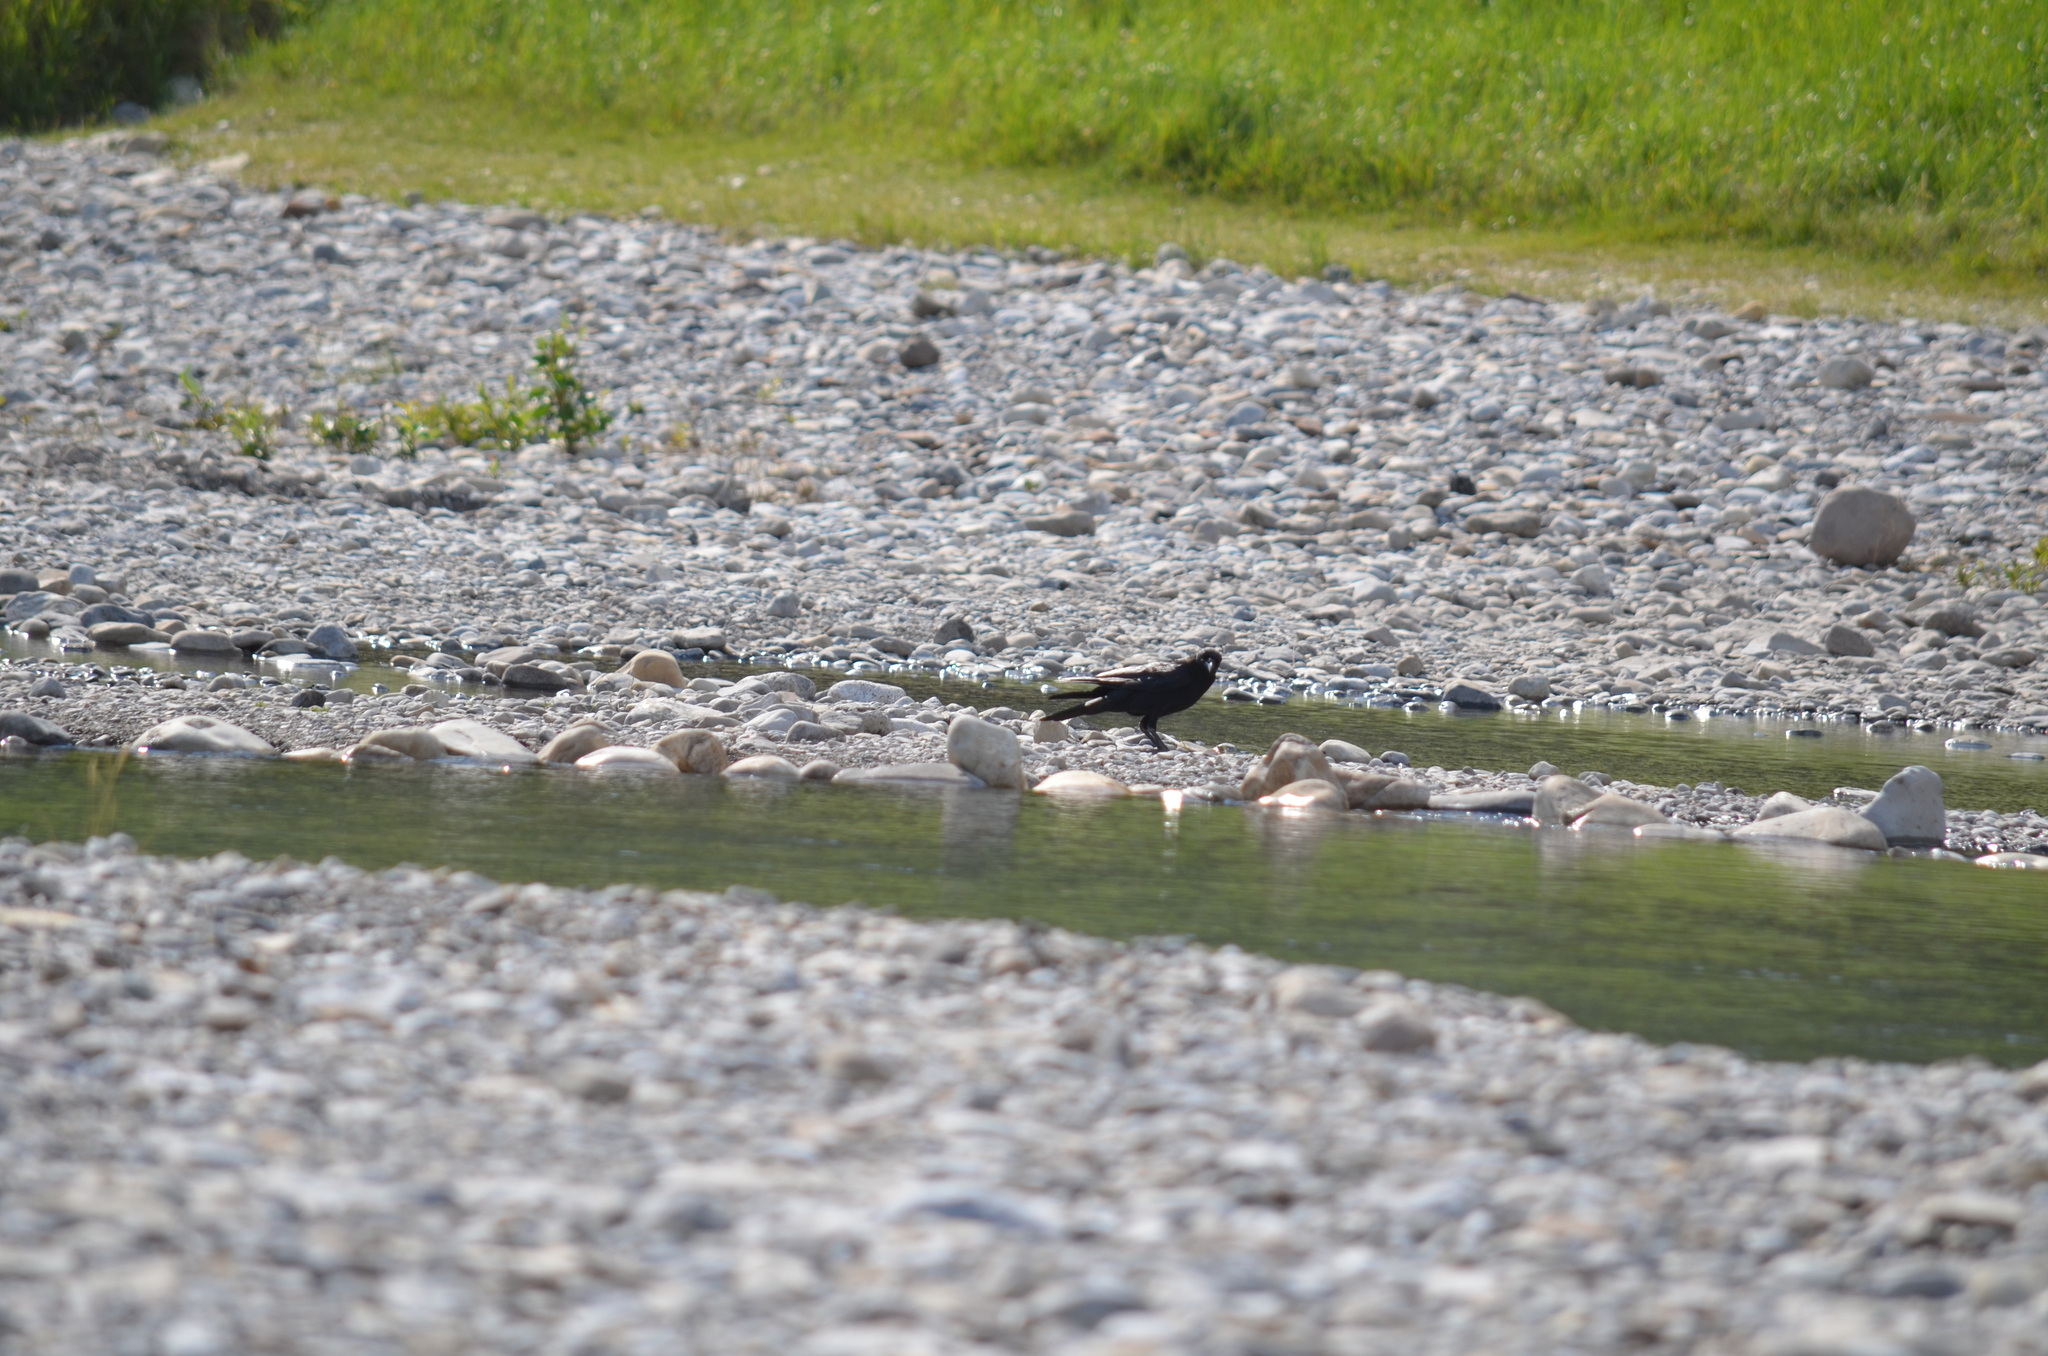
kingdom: Animalia
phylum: Chordata
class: Aves
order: Passeriformes
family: Corvidae
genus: Corvus
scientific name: Corvus brachyrhynchos
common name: American crow
